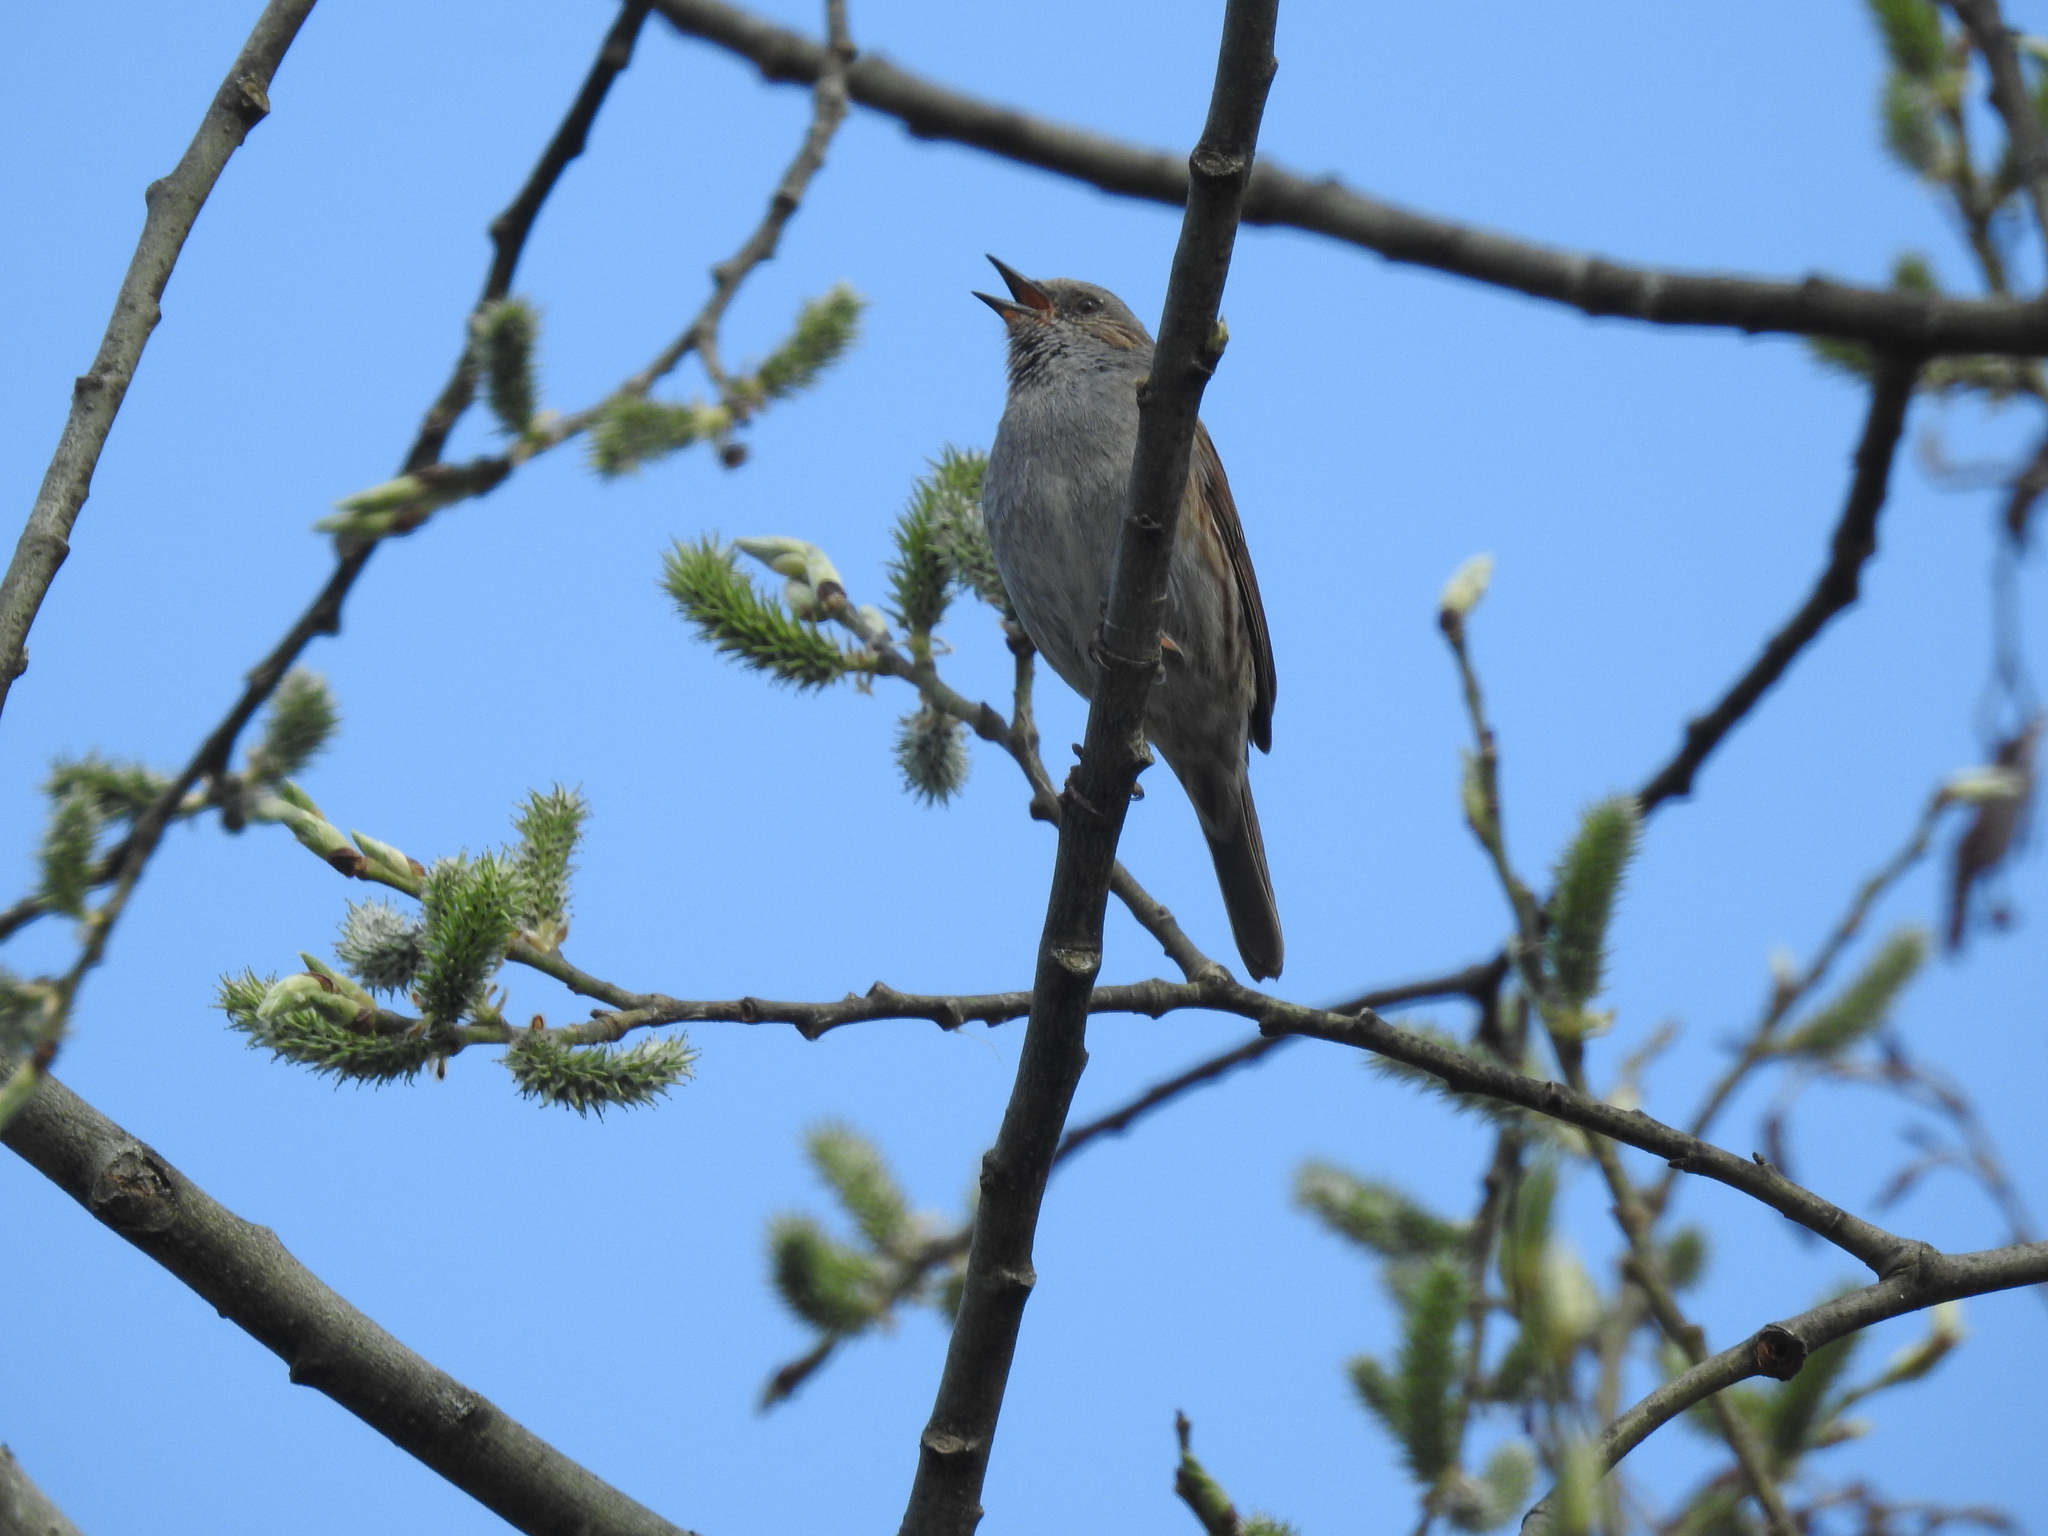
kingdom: Animalia
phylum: Chordata
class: Aves
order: Passeriformes
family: Prunellidae
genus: Prunella
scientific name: Prunella modularis
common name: Dunnock
